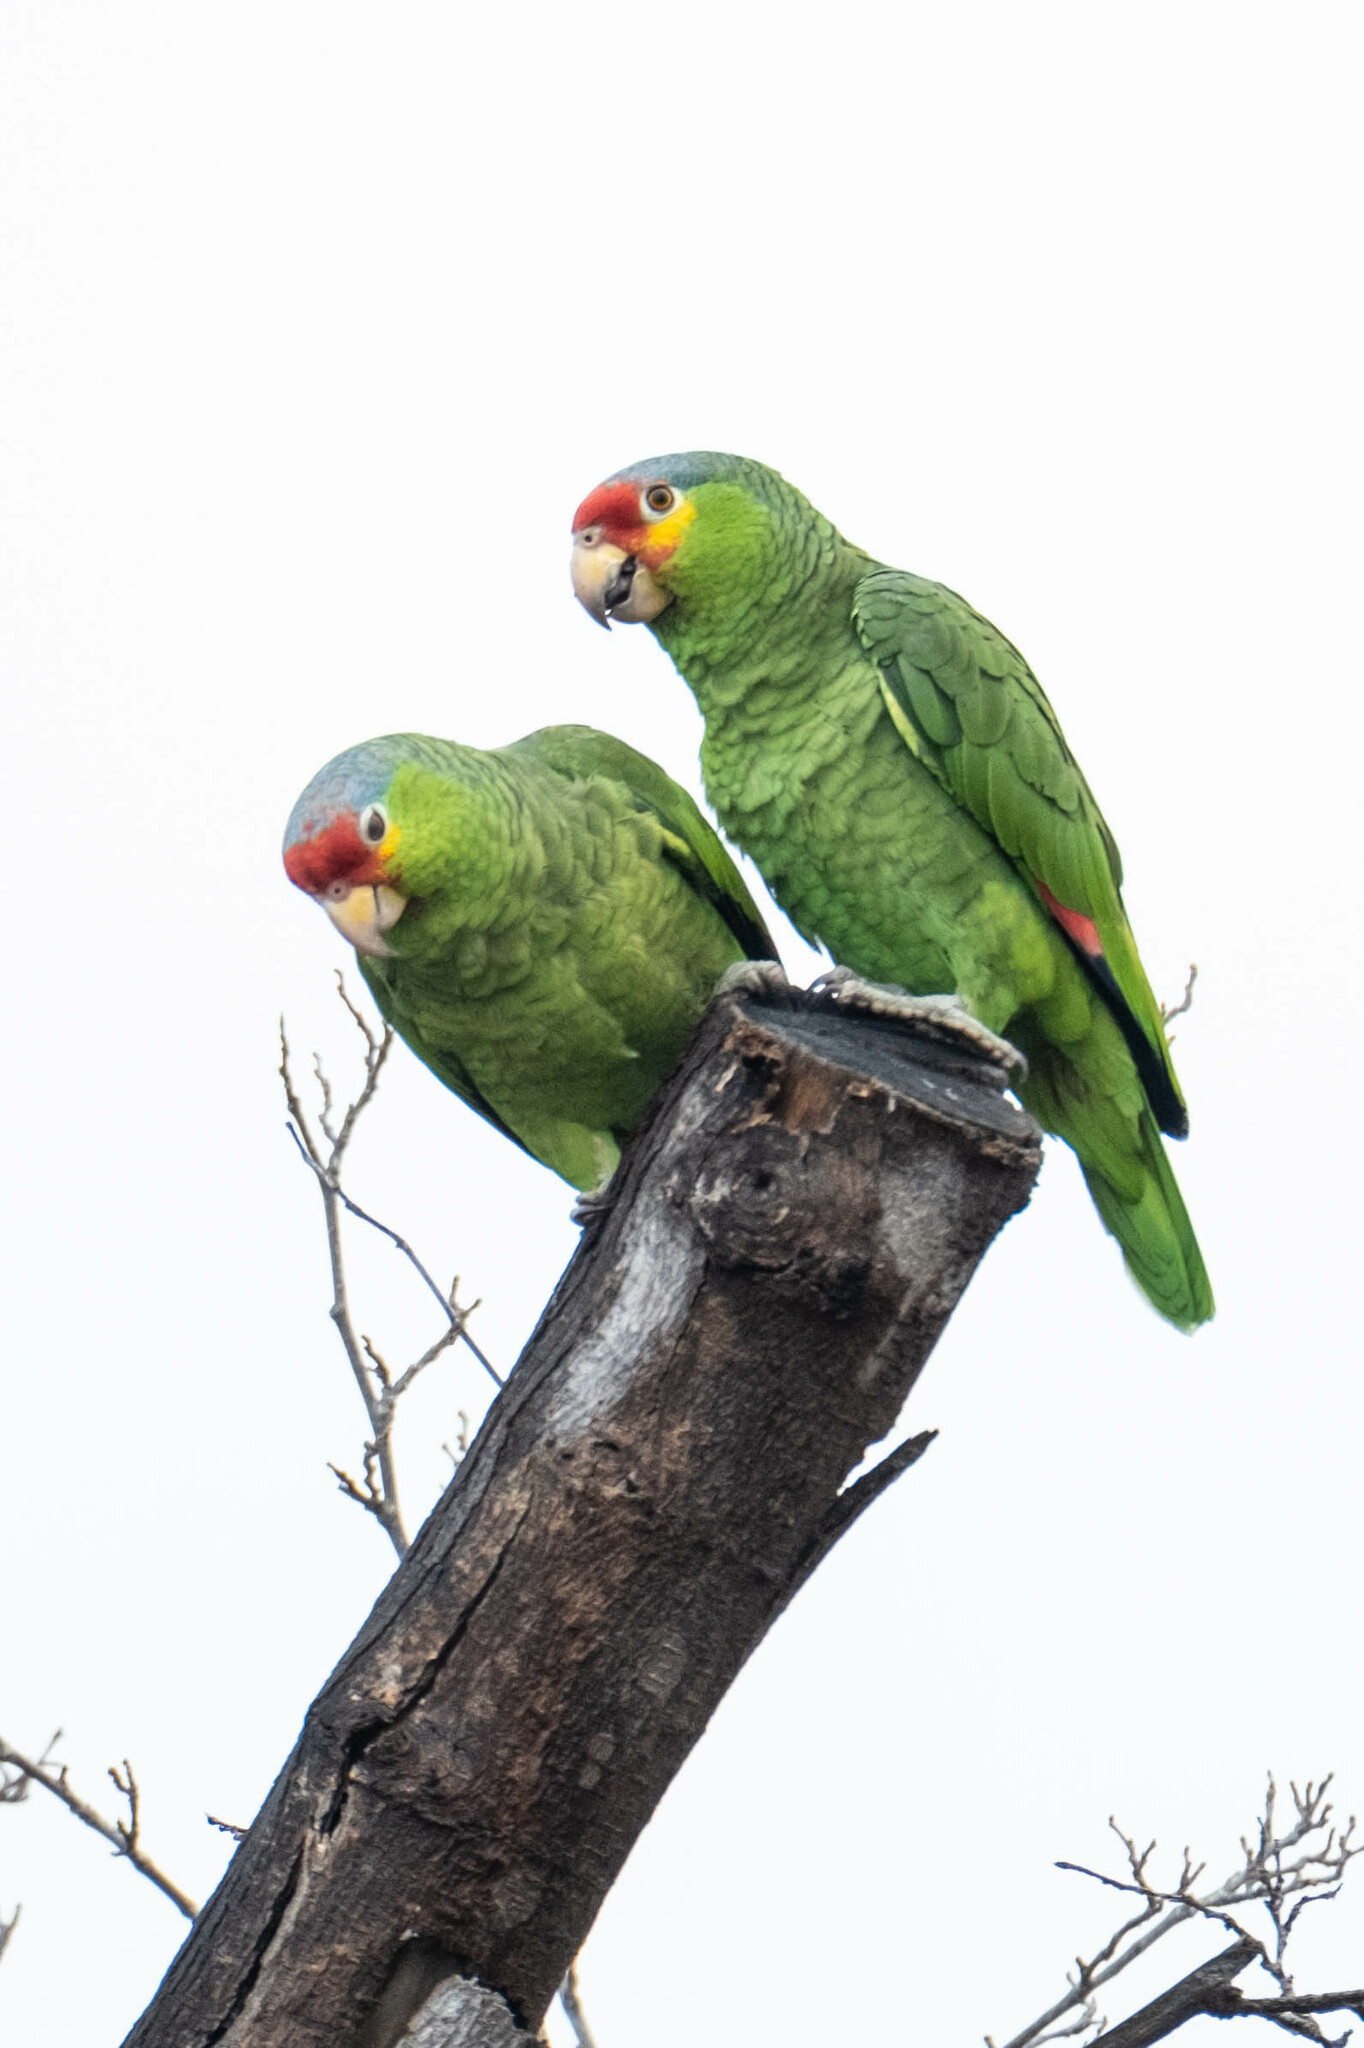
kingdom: Animalia
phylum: Chordata
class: Aves
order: Psittaciformes
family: Psittacidae
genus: Amazona
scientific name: Amazona autumnalis
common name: Red-lored amazon
